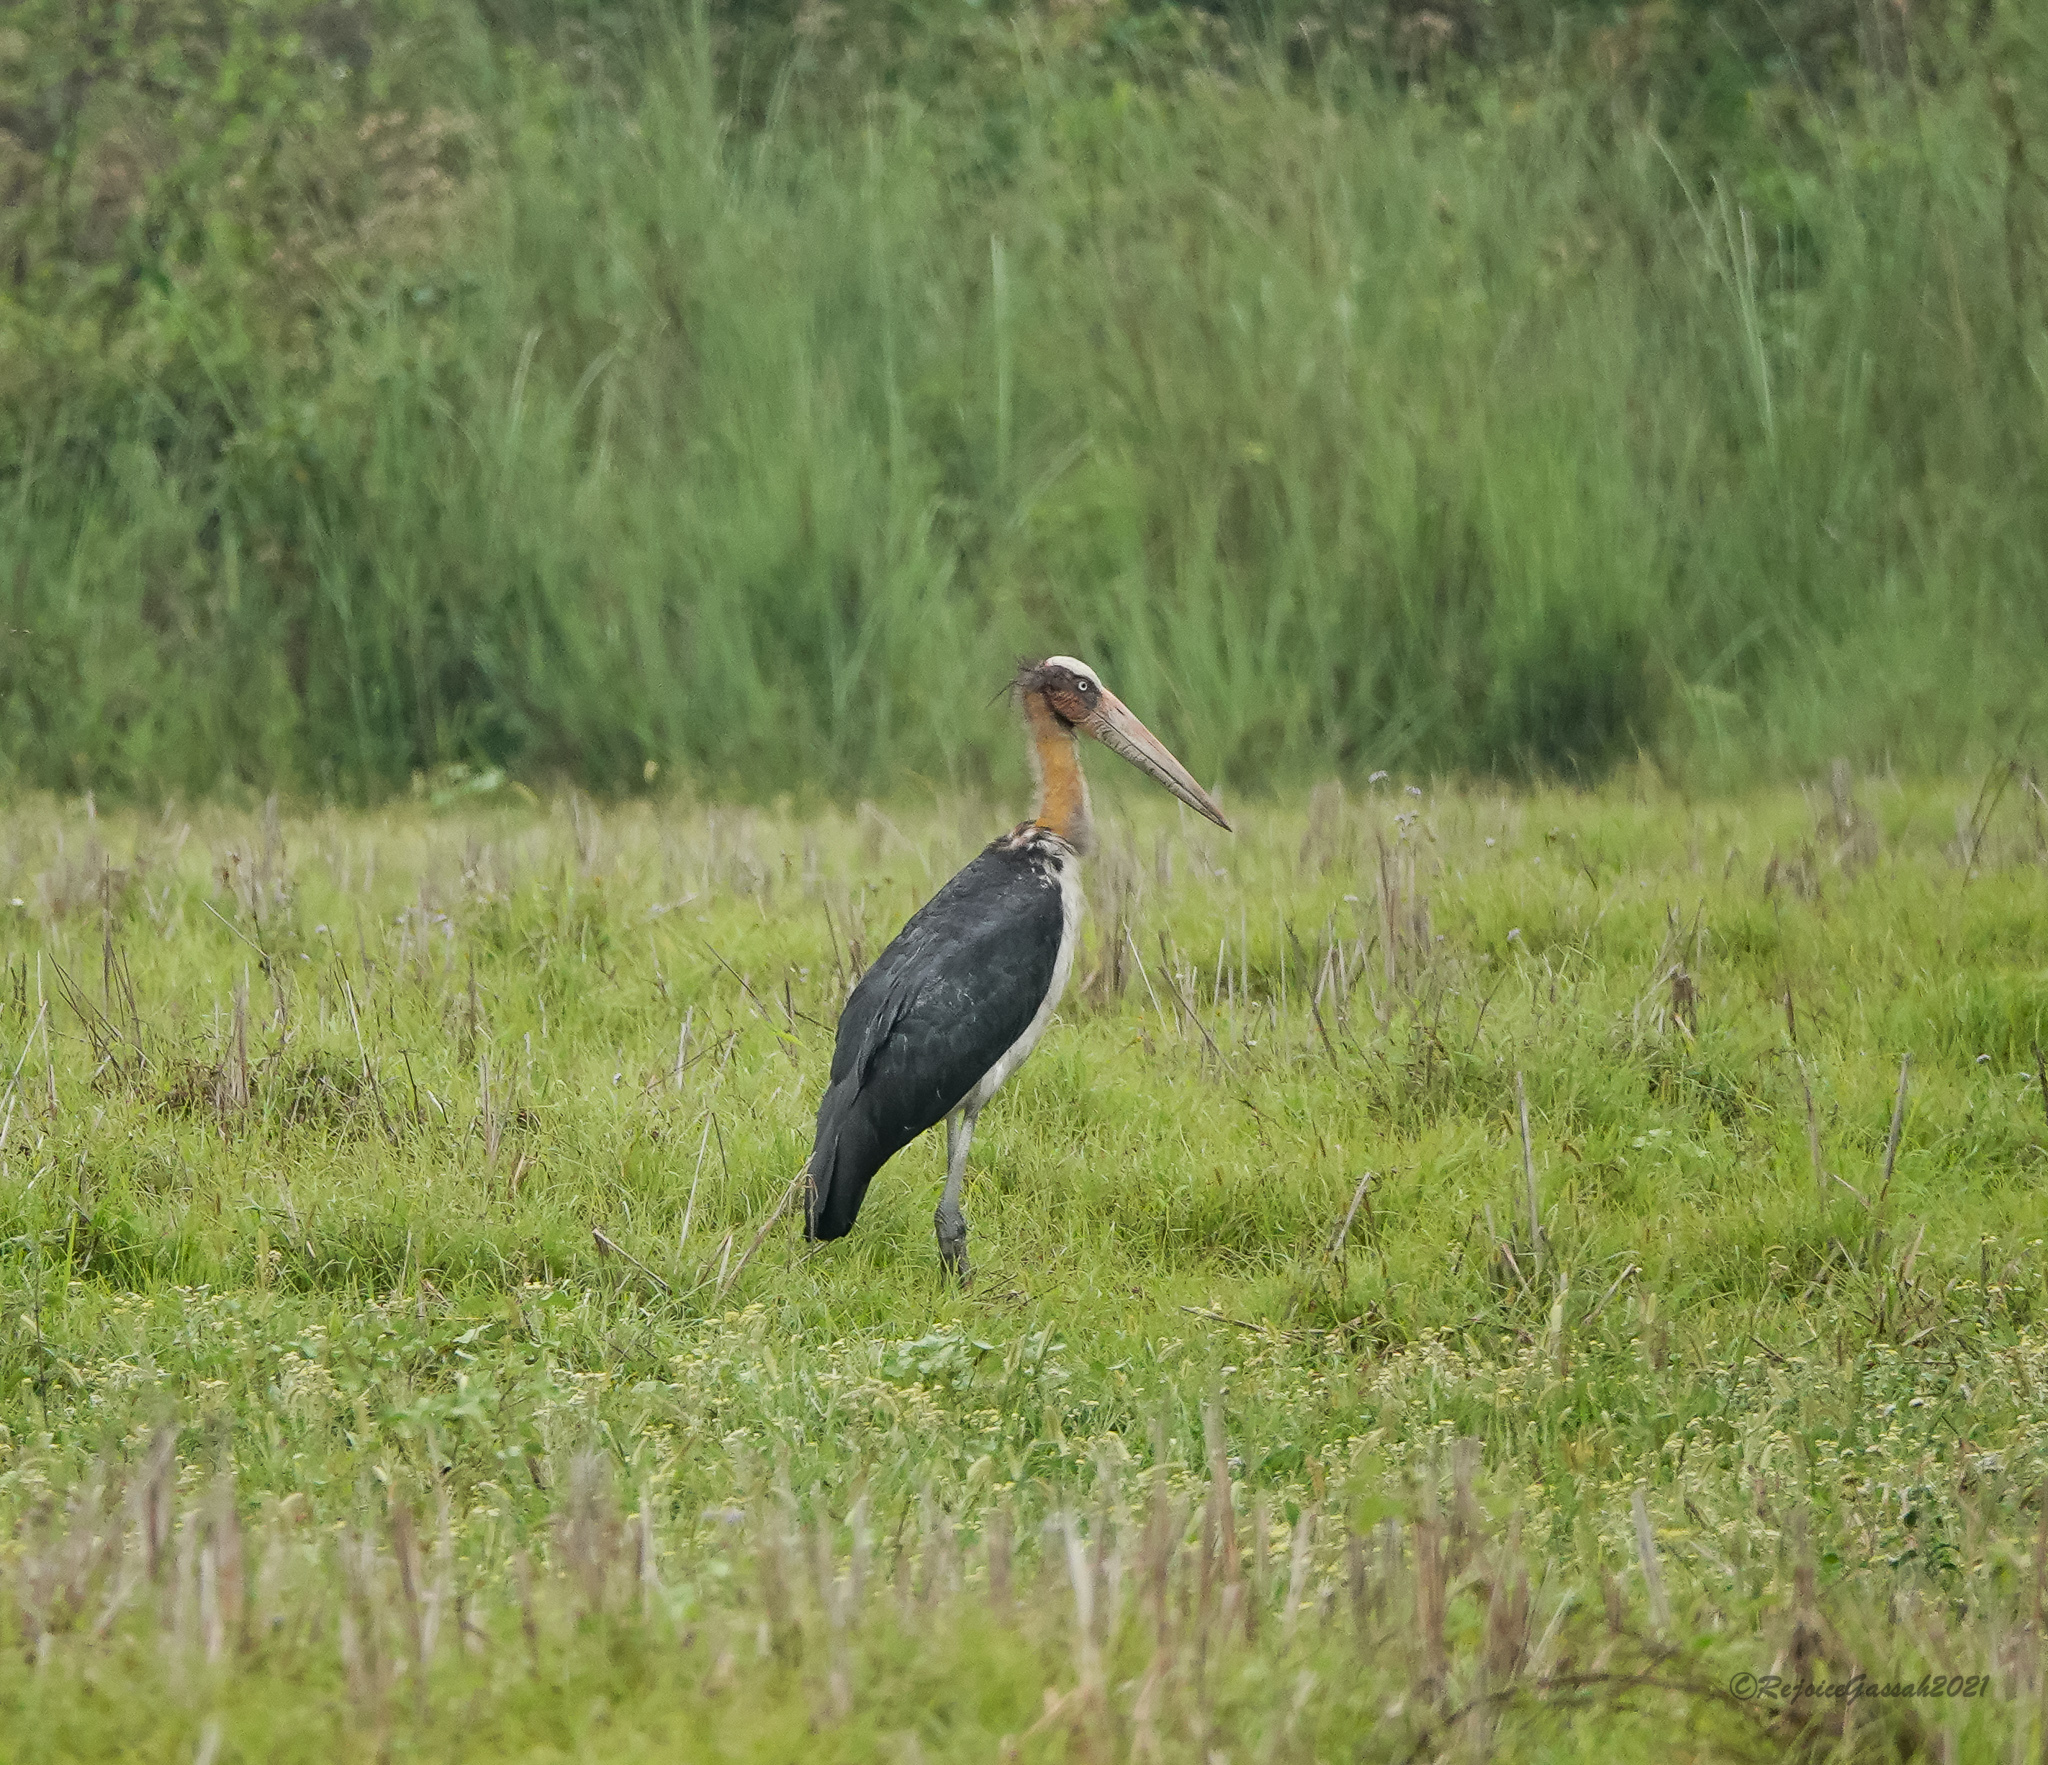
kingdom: Animalia
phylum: Chordata
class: Aves
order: Ciconiiformes
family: Ciconiidae
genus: Leptoptilos
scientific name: Leptoptilos javanicus
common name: Lesser adjutant
